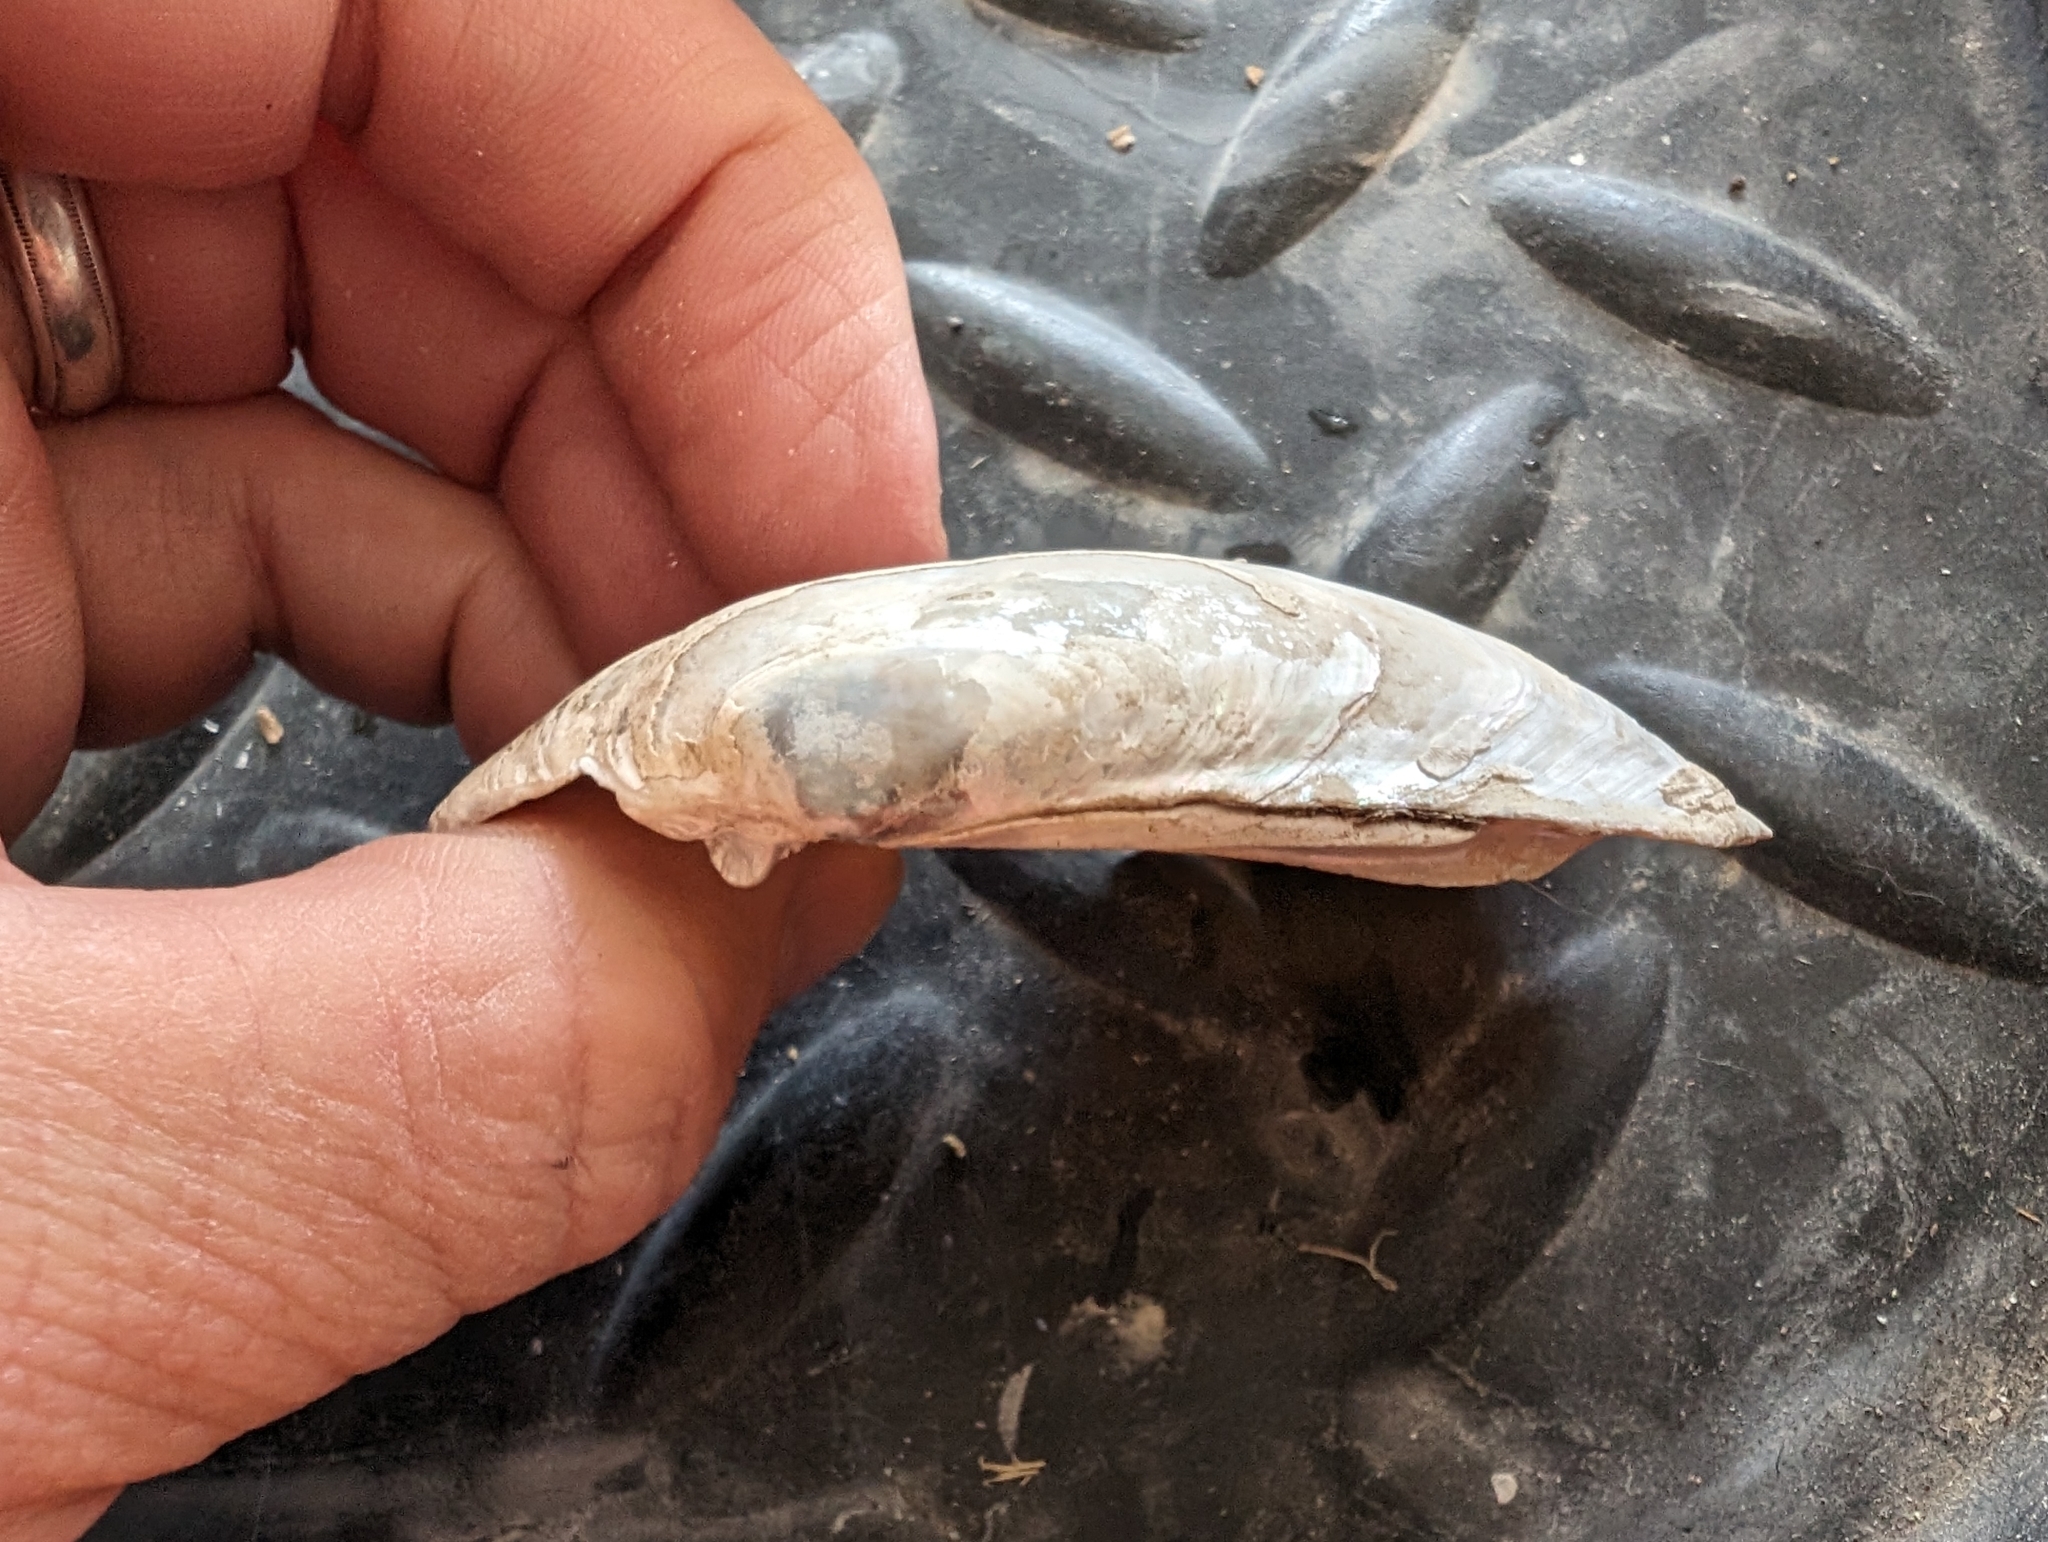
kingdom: Animalia
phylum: Mollusca
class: Bivalvia
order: Unionida
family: Unionidae
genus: Lampsilis
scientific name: Lampsilis siliquoidea
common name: Fatmucket
